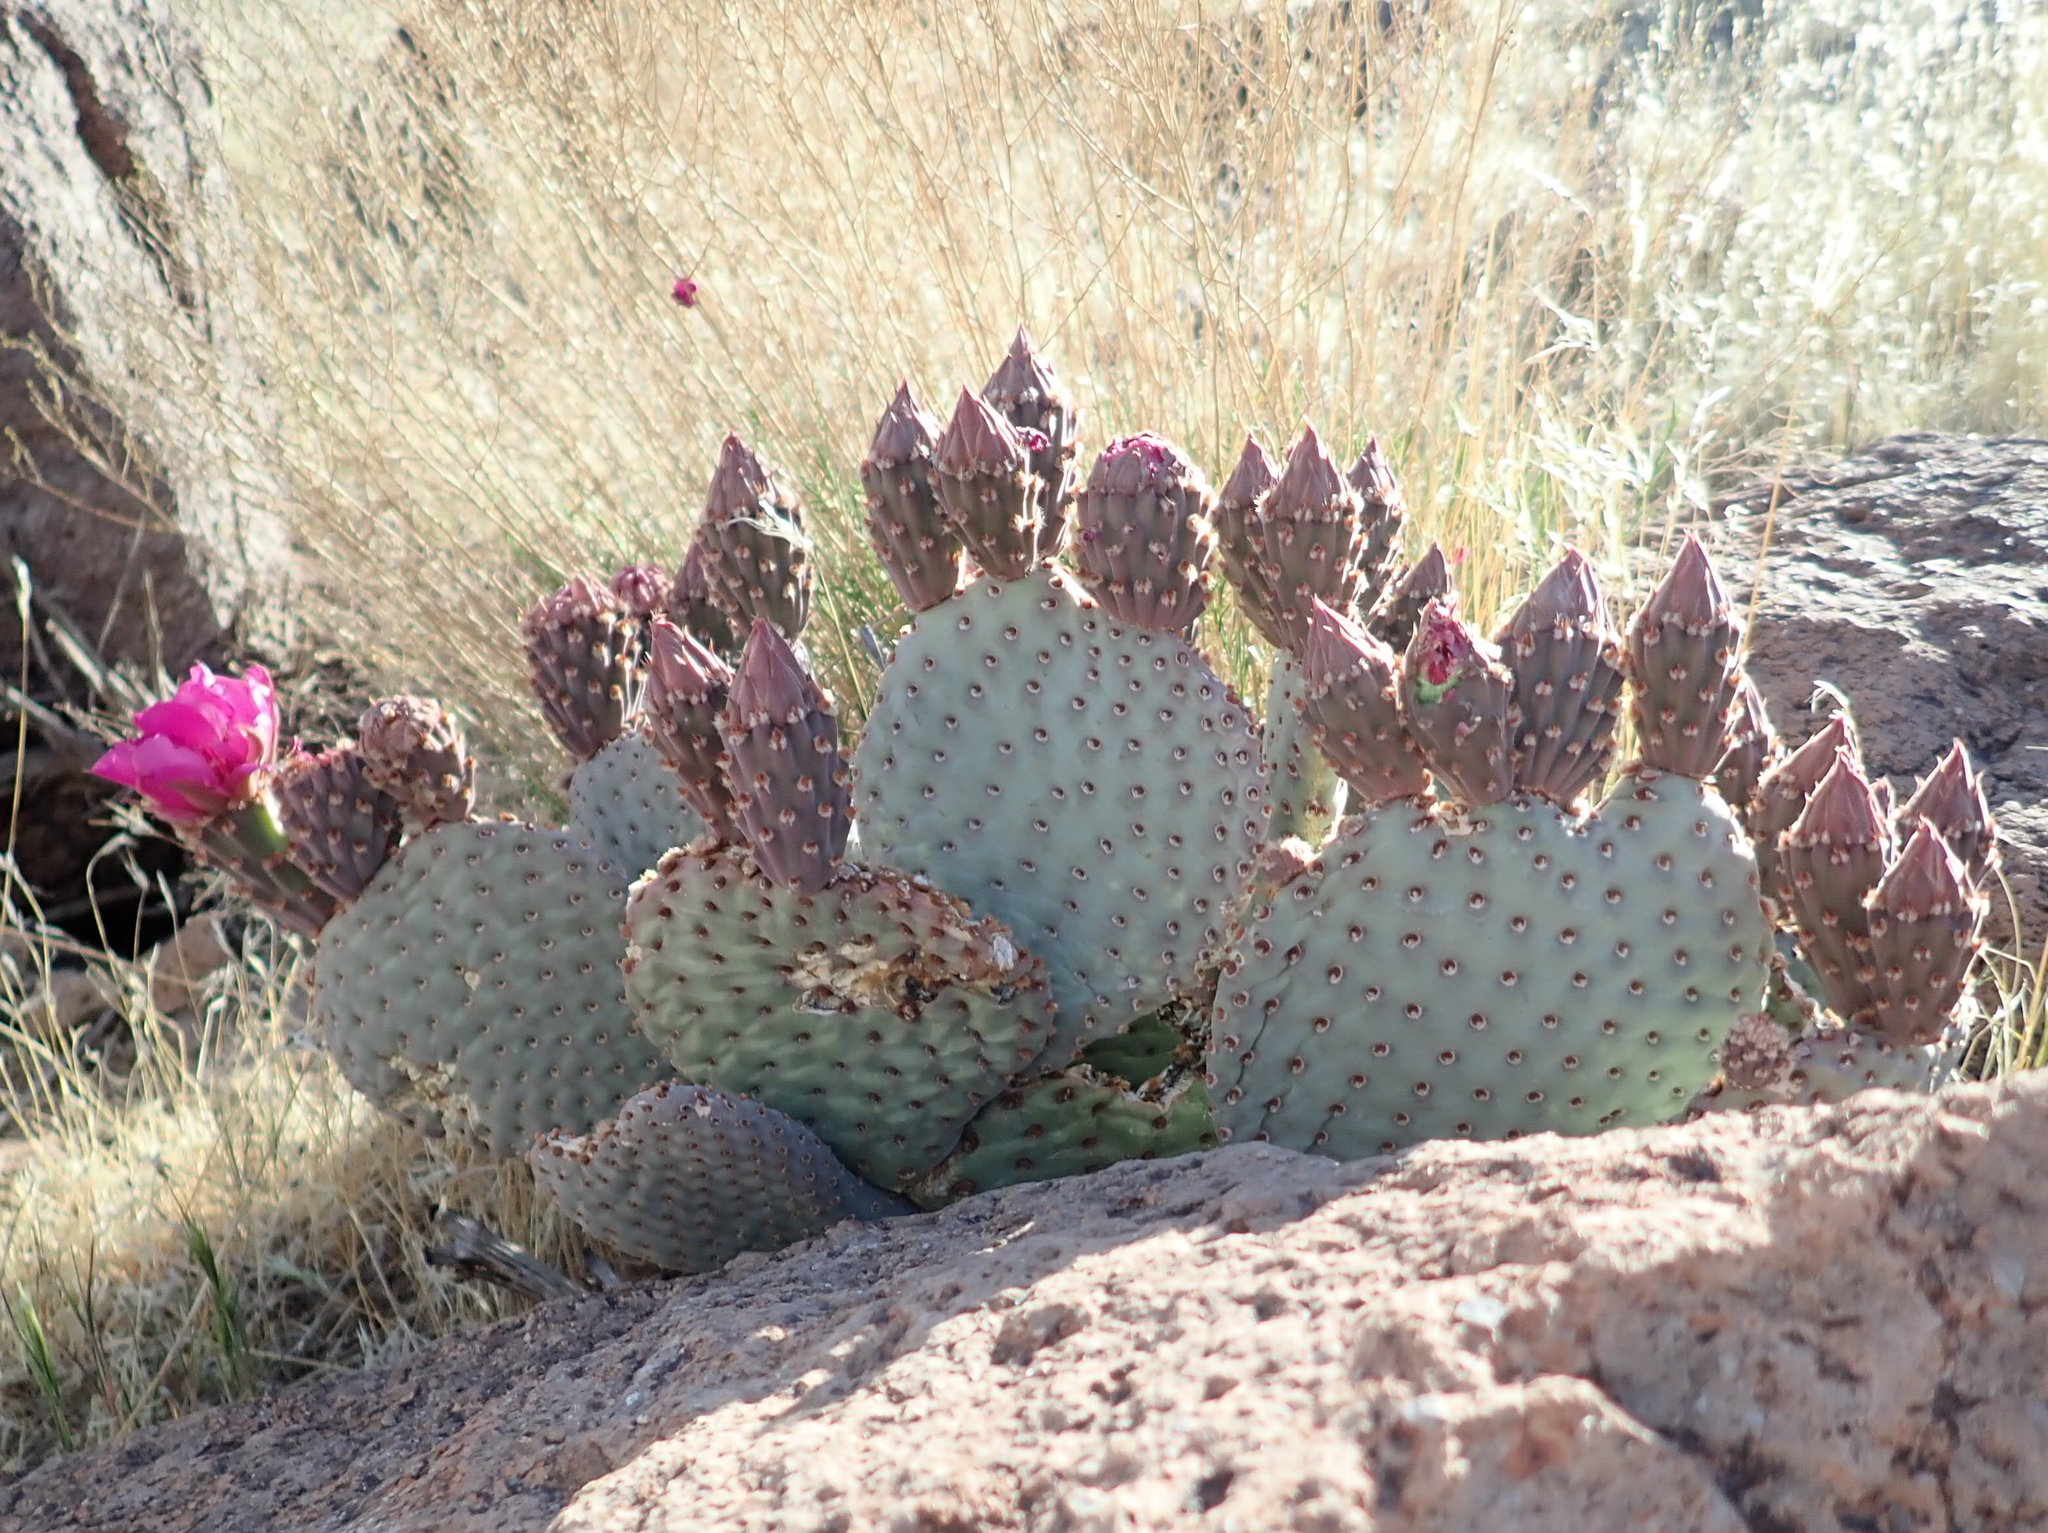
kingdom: Plantae
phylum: Tracheophyta
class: Magnoliopsida
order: Caryophyllales
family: Cactaceae
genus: Opuntia
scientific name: Opuntia basilaris
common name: Beavertail prickly-pear
